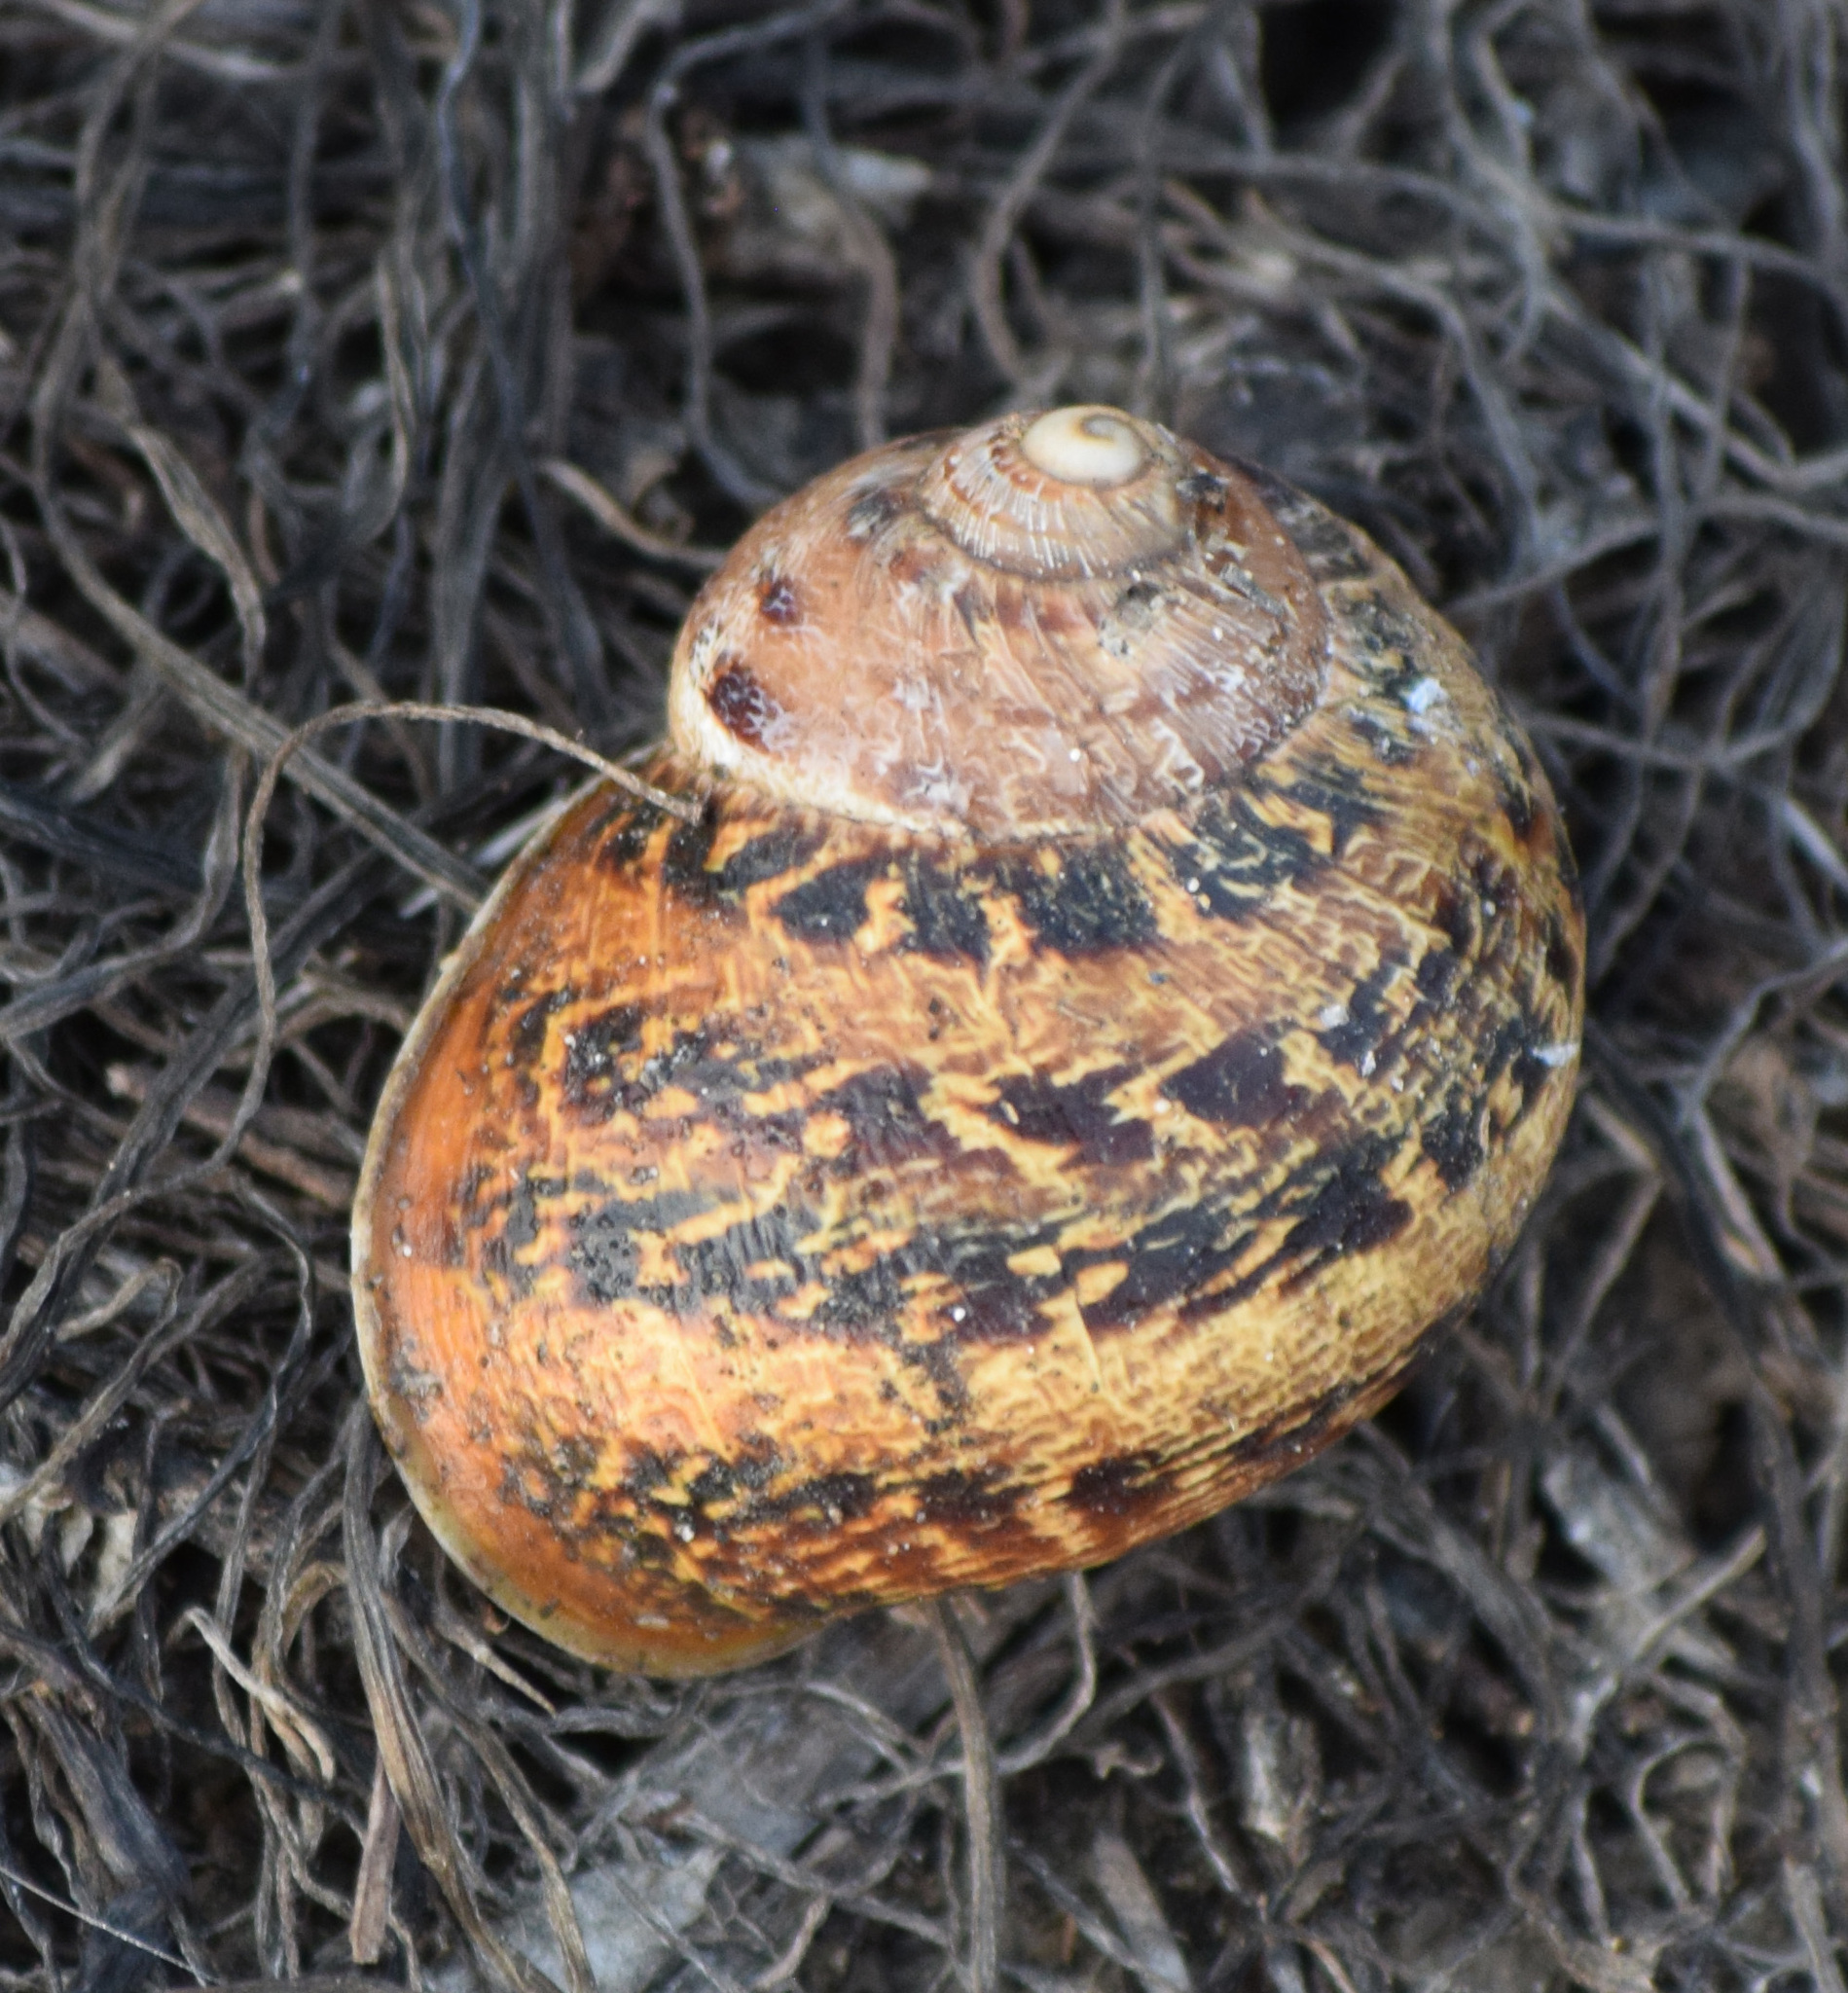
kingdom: Animalia
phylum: Mollusca
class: Gastropoda
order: Stylommatophora
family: Helicidae
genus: Cornu
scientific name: Cornu aspersum
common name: Brown garden snail
